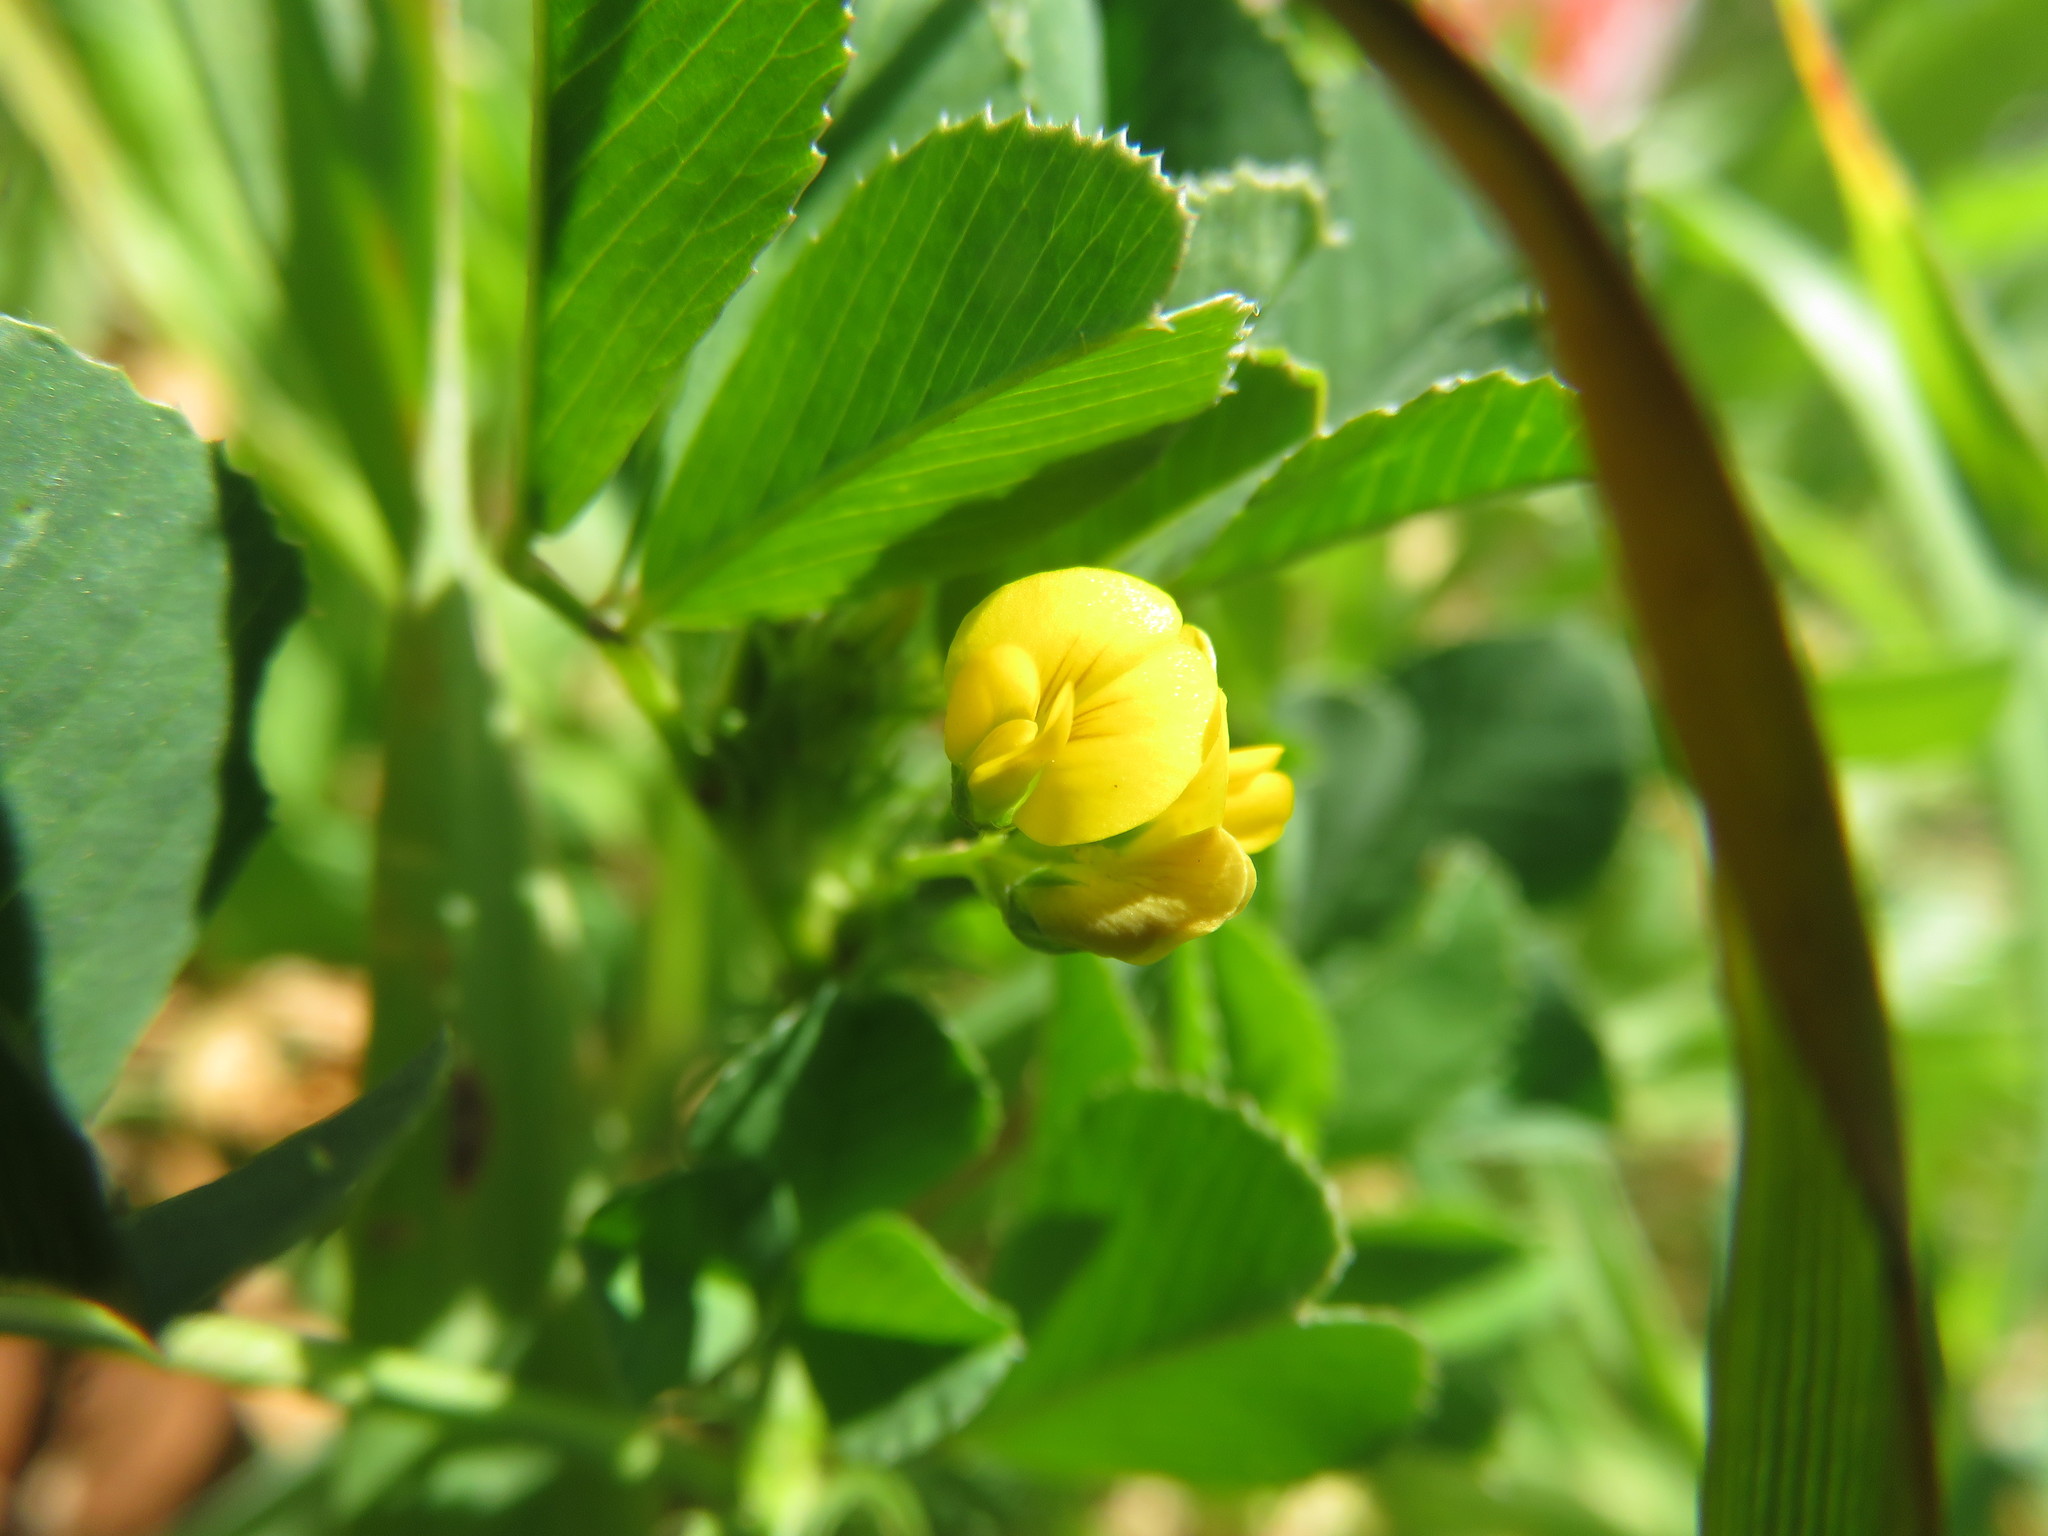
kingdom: Plantae
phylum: Tracheophyta
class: Magnoliopsida
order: Fabales
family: Fabaceae
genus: Medicago
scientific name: Medicago polymorpha
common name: Burclover
